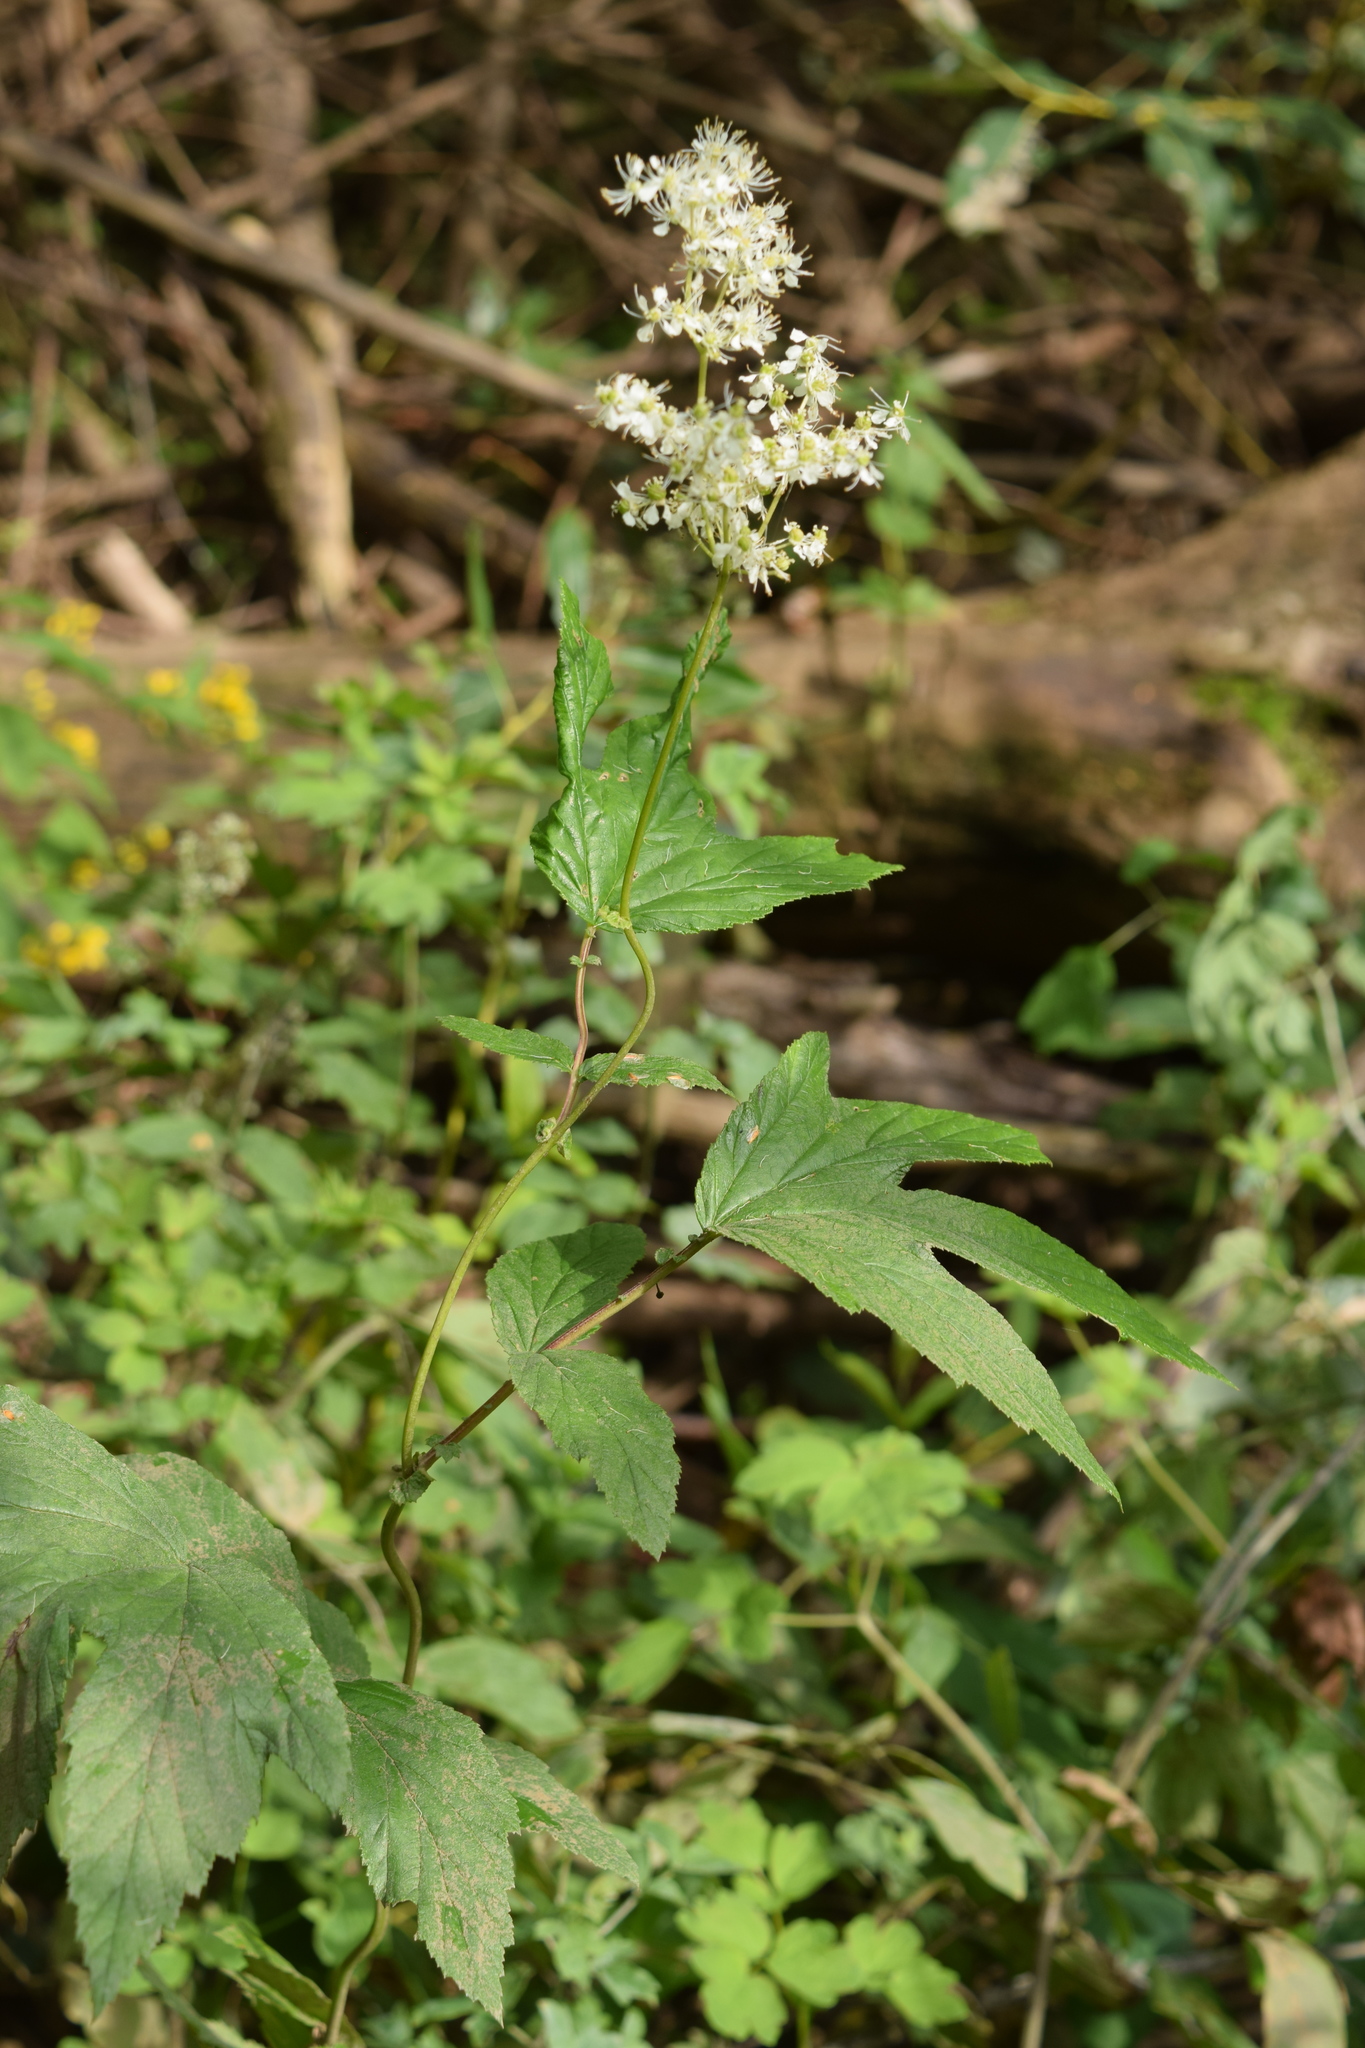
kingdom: Plantae
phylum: Tracheophyta
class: Magnoliopsida
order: Rosales
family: Rosaceae
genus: Filipendula
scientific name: Filipendula ulmaria
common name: Meadowsweet
